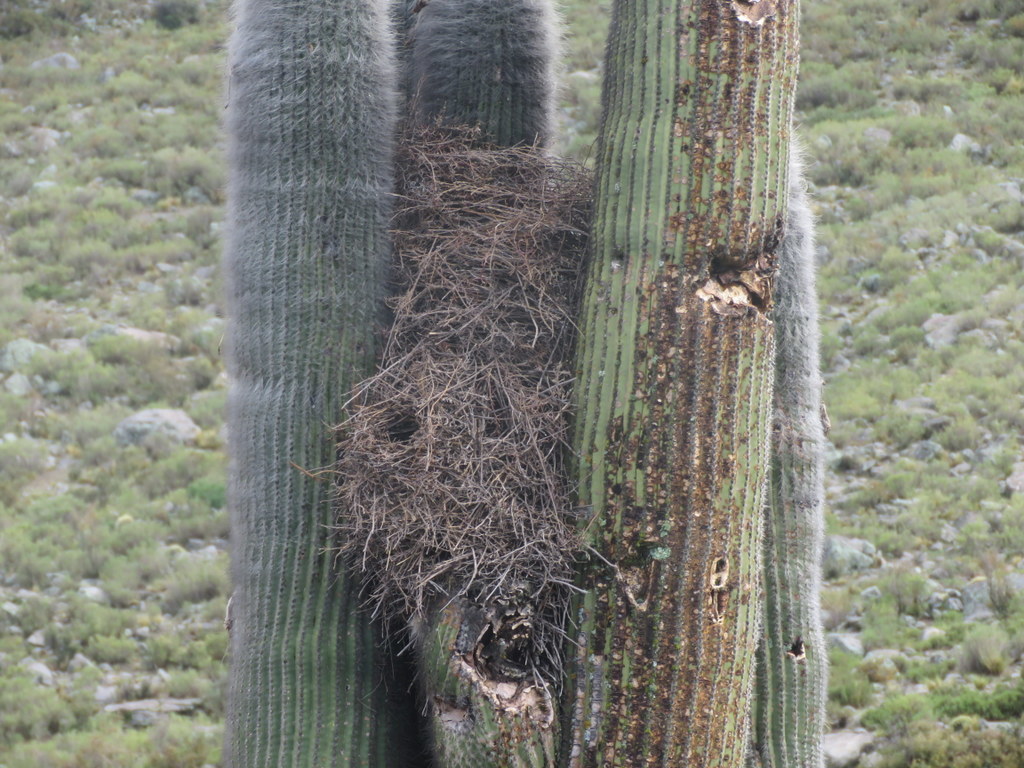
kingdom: Animalia
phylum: Chordata
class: Aves
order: Passeriformes
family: Furnariidae
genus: Phacellodomus
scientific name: Phacellodomus striaticeps
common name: Streak-fronted thornbird
